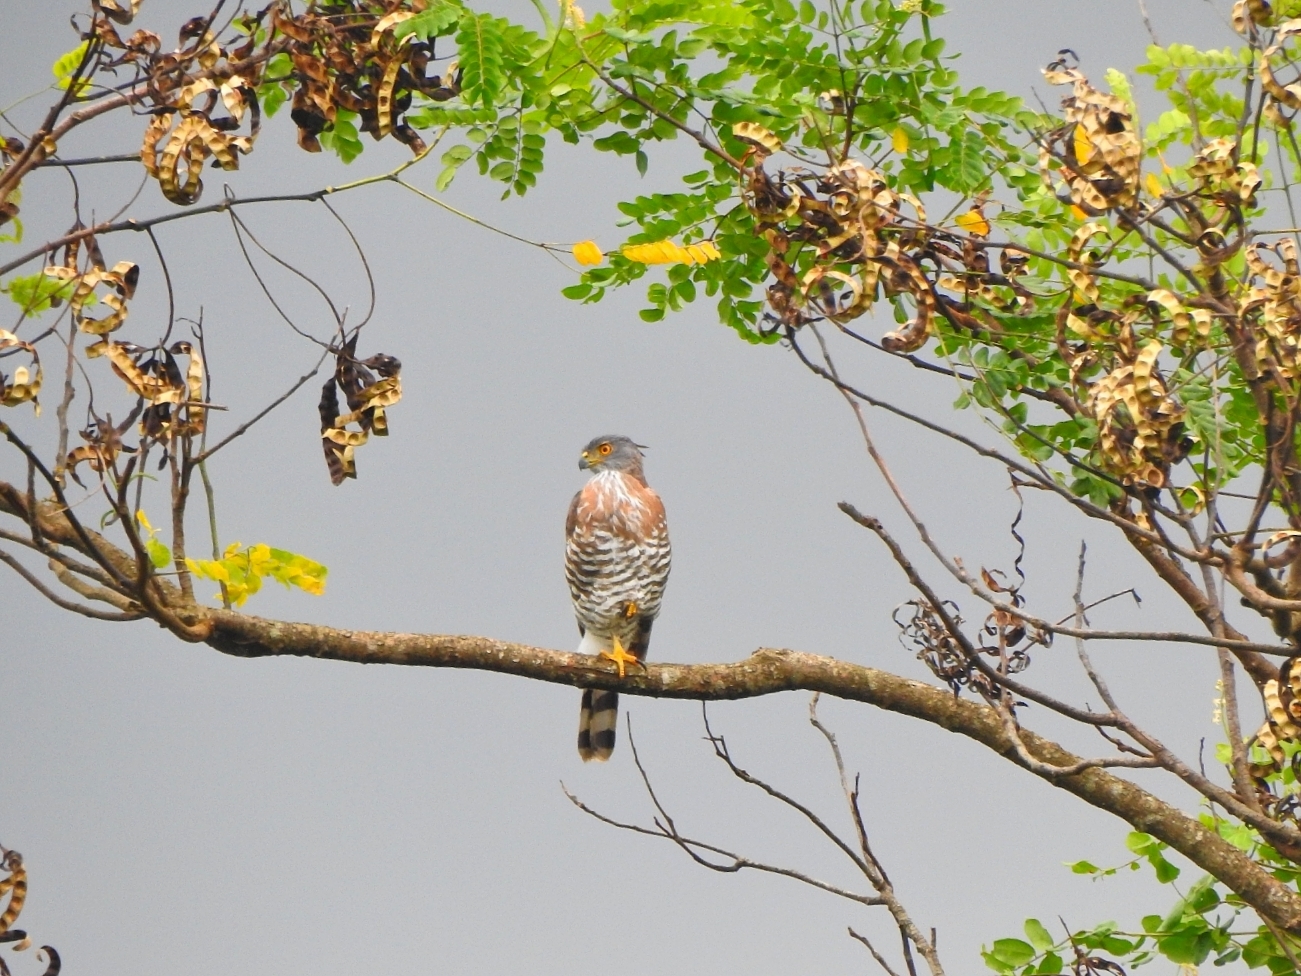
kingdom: Animalia
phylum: Chordata
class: Aves
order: Accipitriformes
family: Accipitridae
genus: Accipiter
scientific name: Accipiter trivirgatus
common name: Crested goshawk
